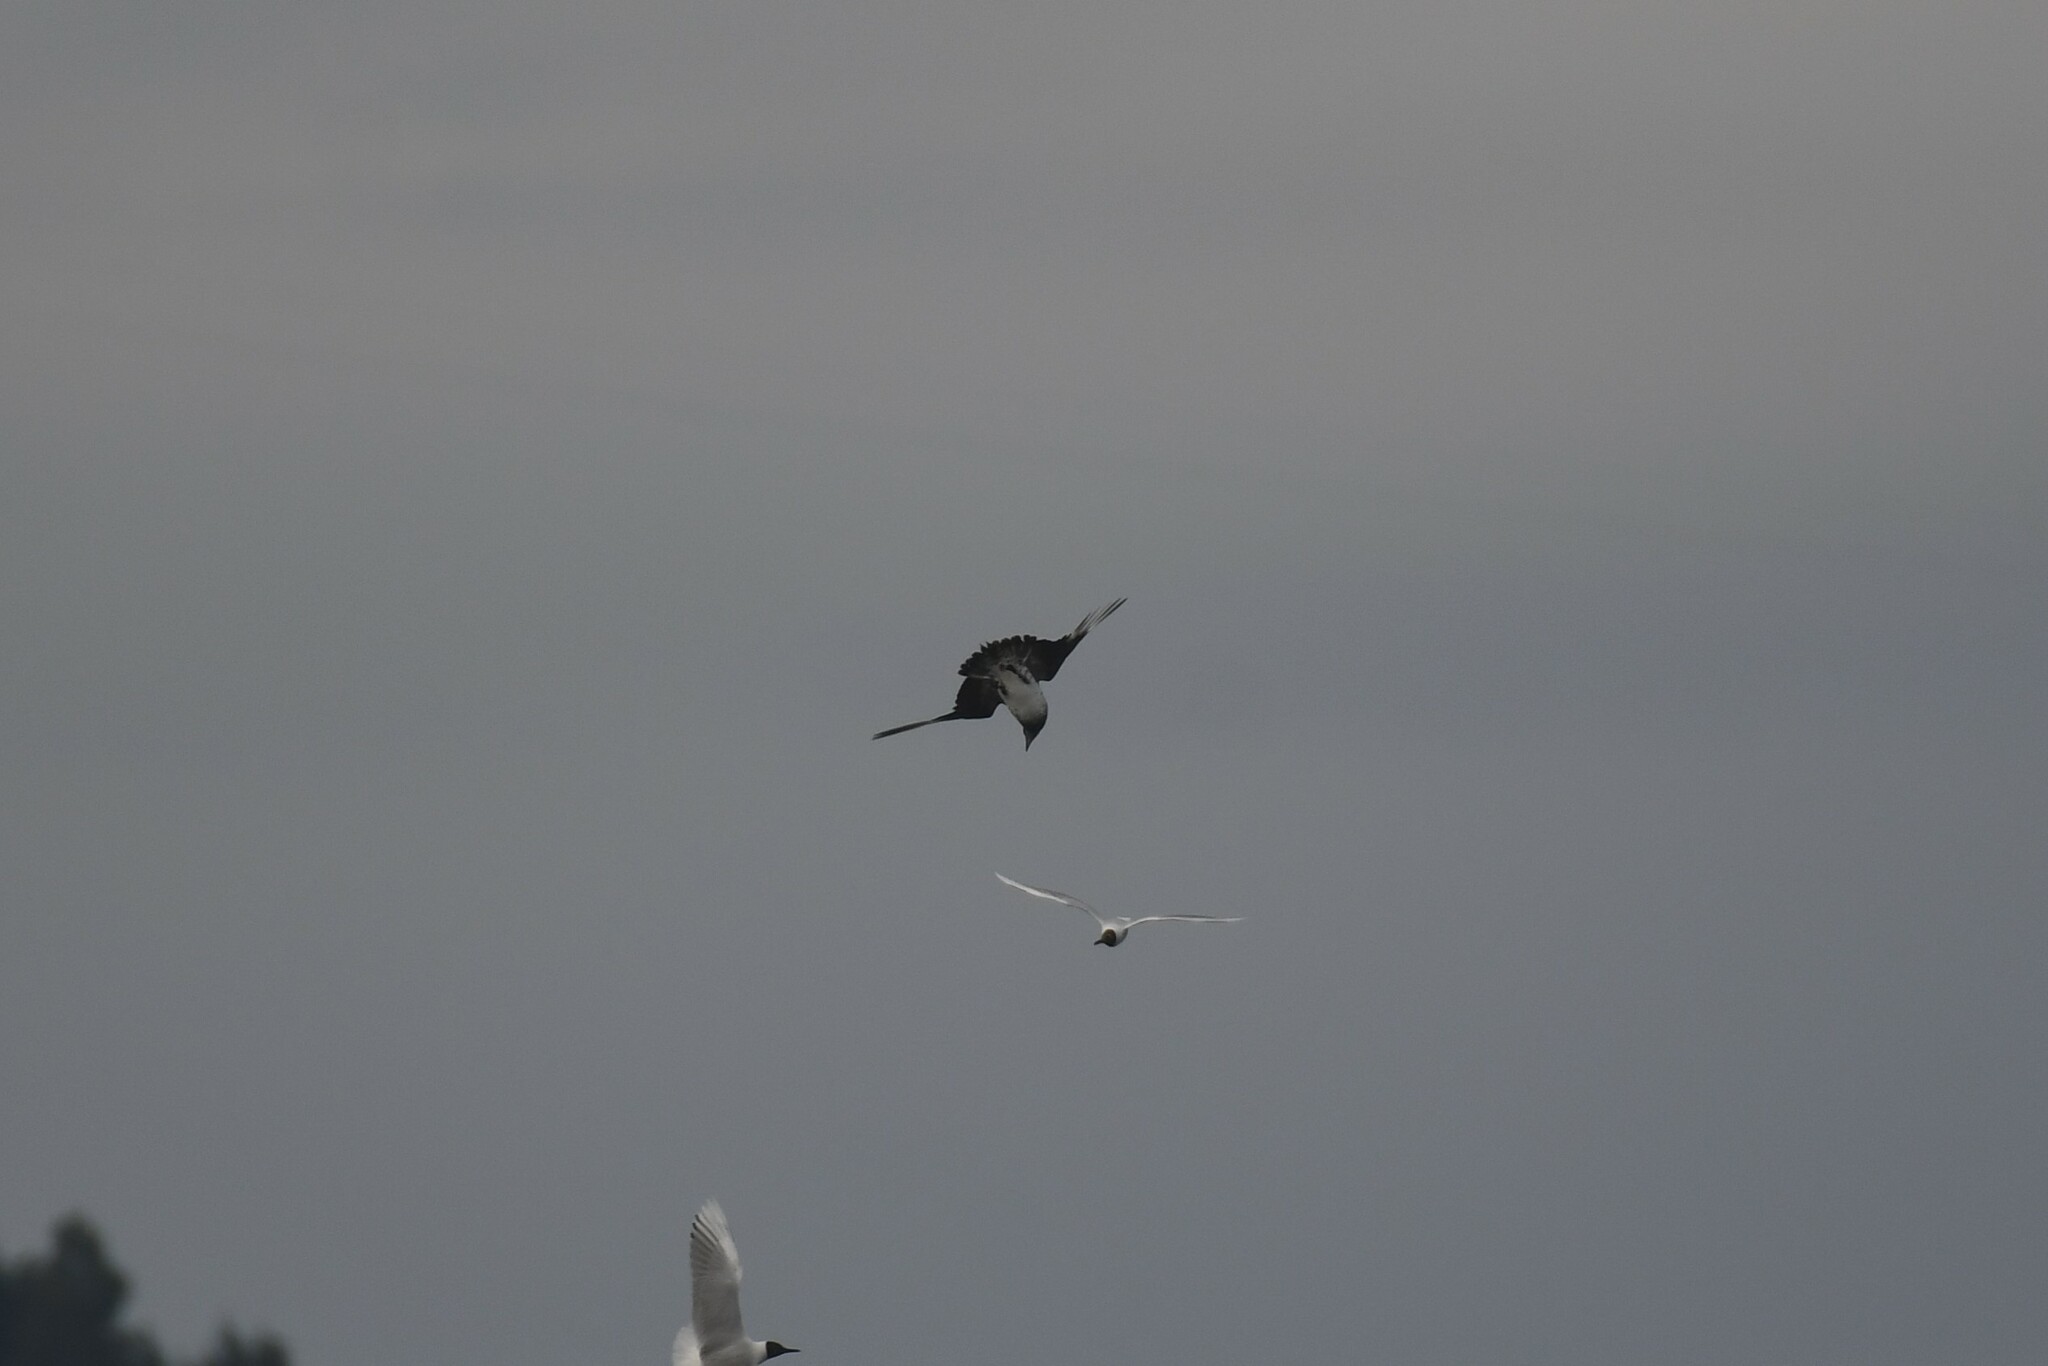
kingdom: Animalia
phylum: Chordata
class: Aves
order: Charadriiformes
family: Stercorariidae
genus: Stercorarius
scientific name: Stercorarius parasiticus
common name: Parasitic jaeger
